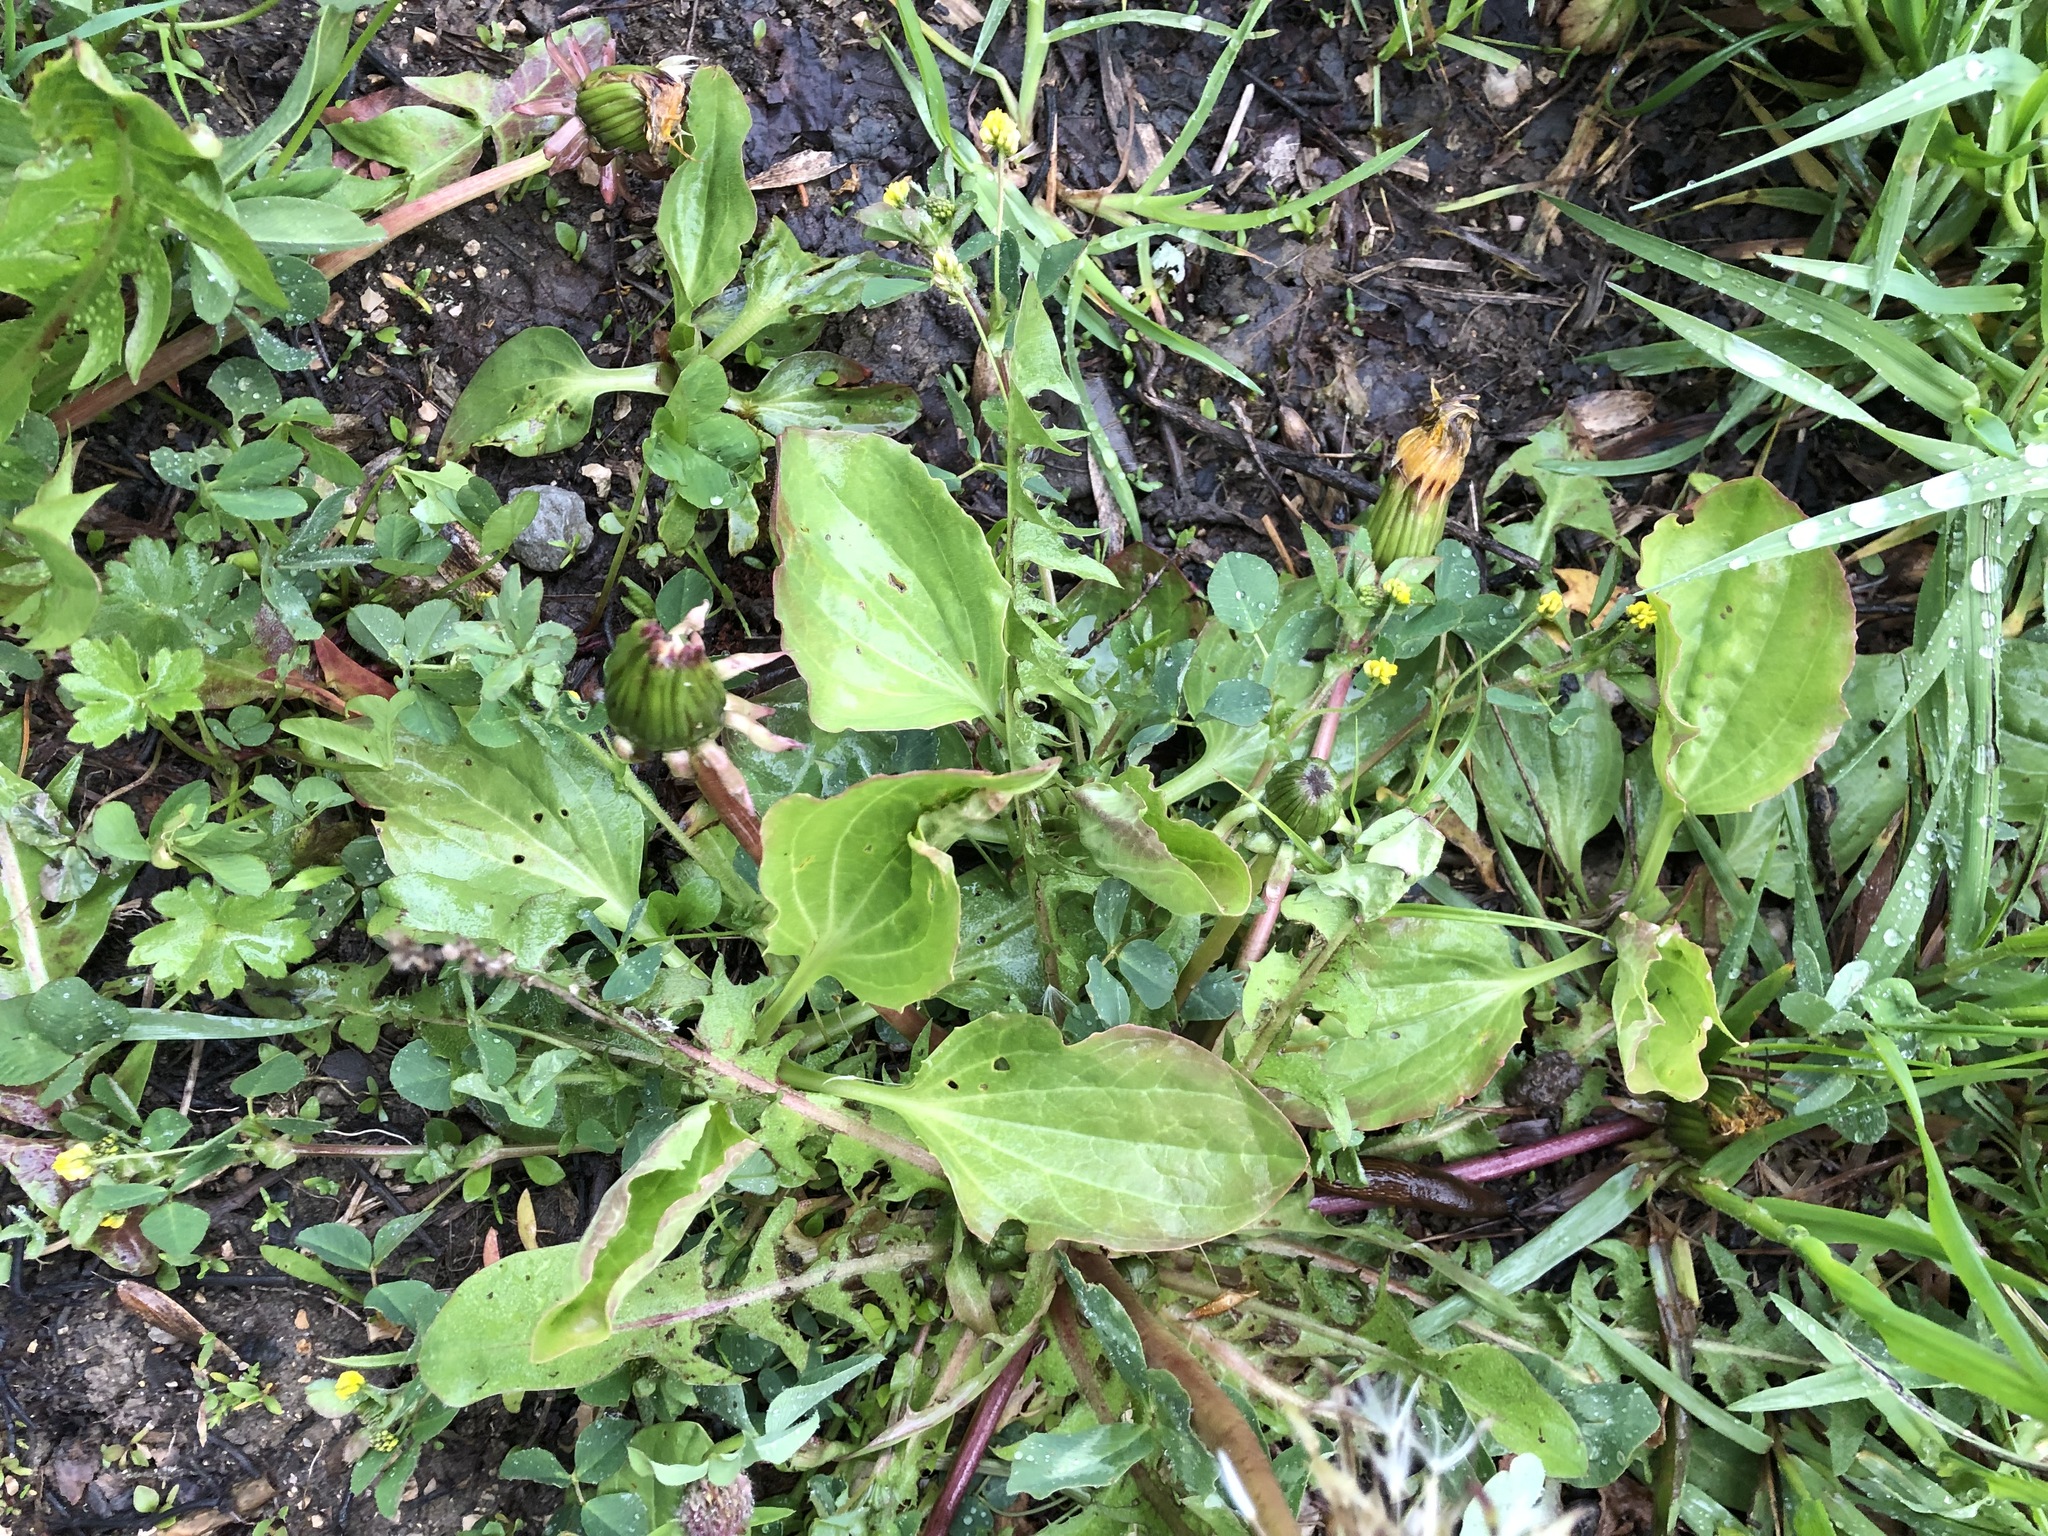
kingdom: Plantae
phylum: Tracheophyta
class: Magnoliopsida
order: Lamiales
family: Plantaginaceae
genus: Plantago
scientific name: Plantago major
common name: Common plantain
